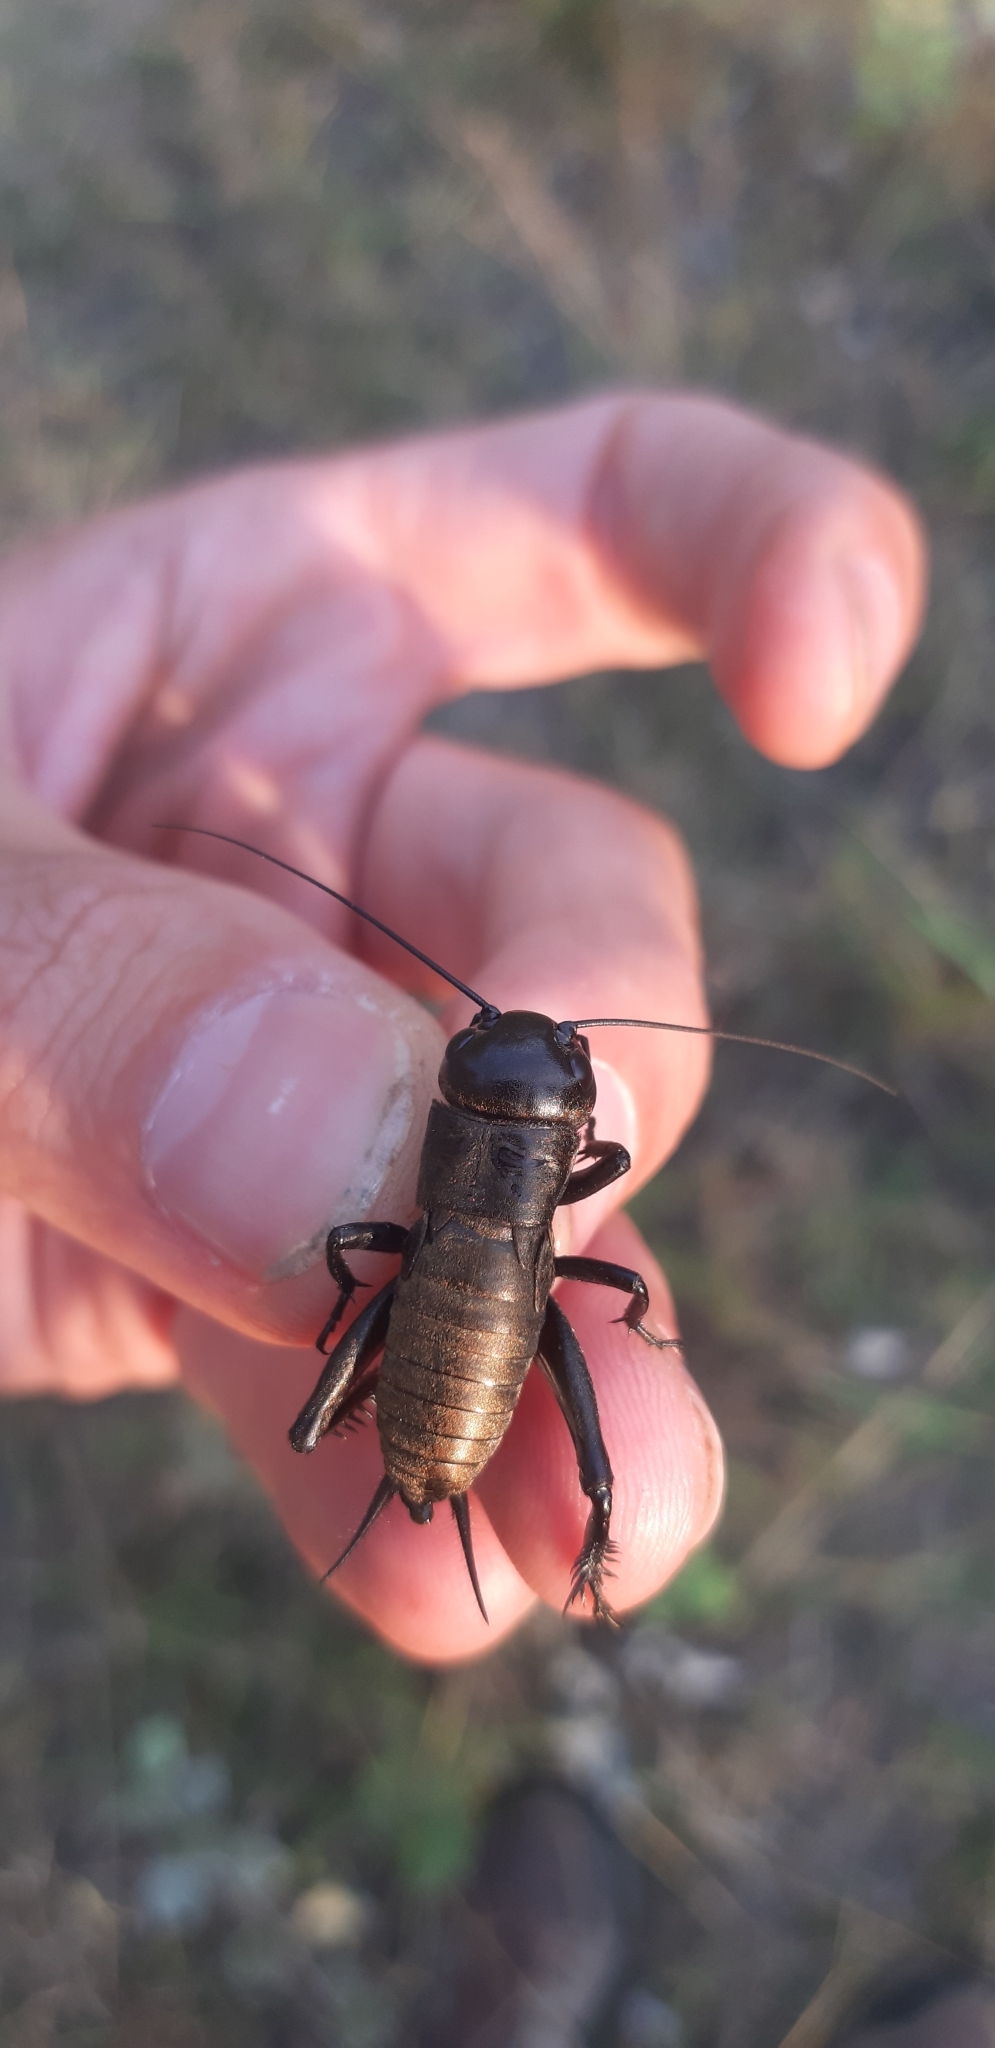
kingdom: Animalia
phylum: Arthropoda
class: Insecta
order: Orthoptera
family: Gryllidae
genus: Gryllus
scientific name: Gryllus campestris
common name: Field cricket
